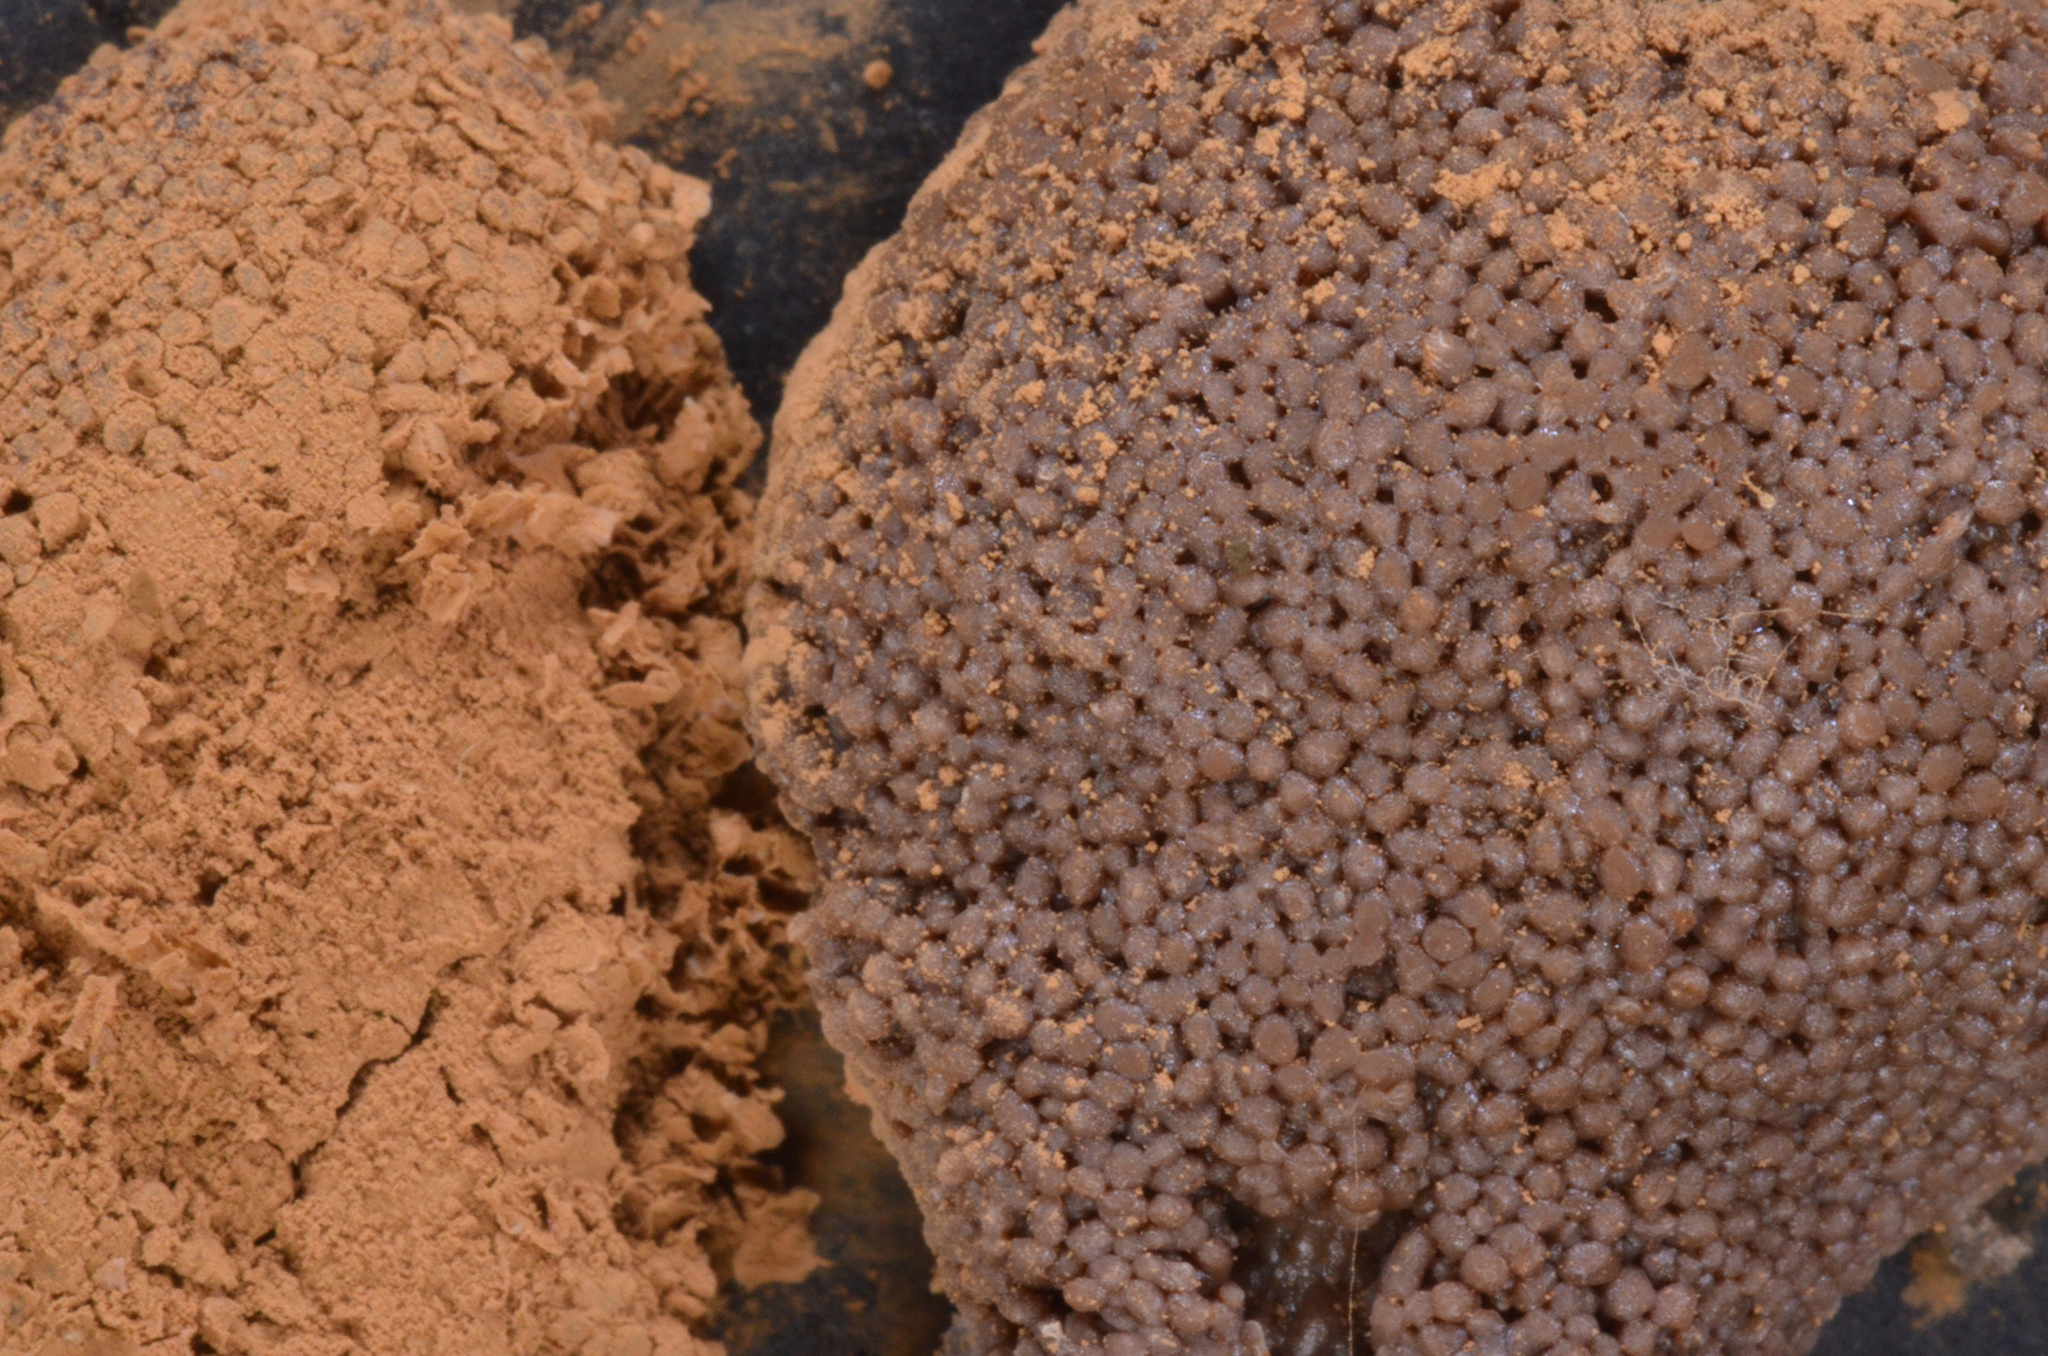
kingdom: Protozoa
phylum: Mycetozoa
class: Myxomycetes
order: Cribrariales
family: Tubiferaceae
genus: Tubifera
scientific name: Tubifera ferruginosa
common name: Red raspberry slime mold
